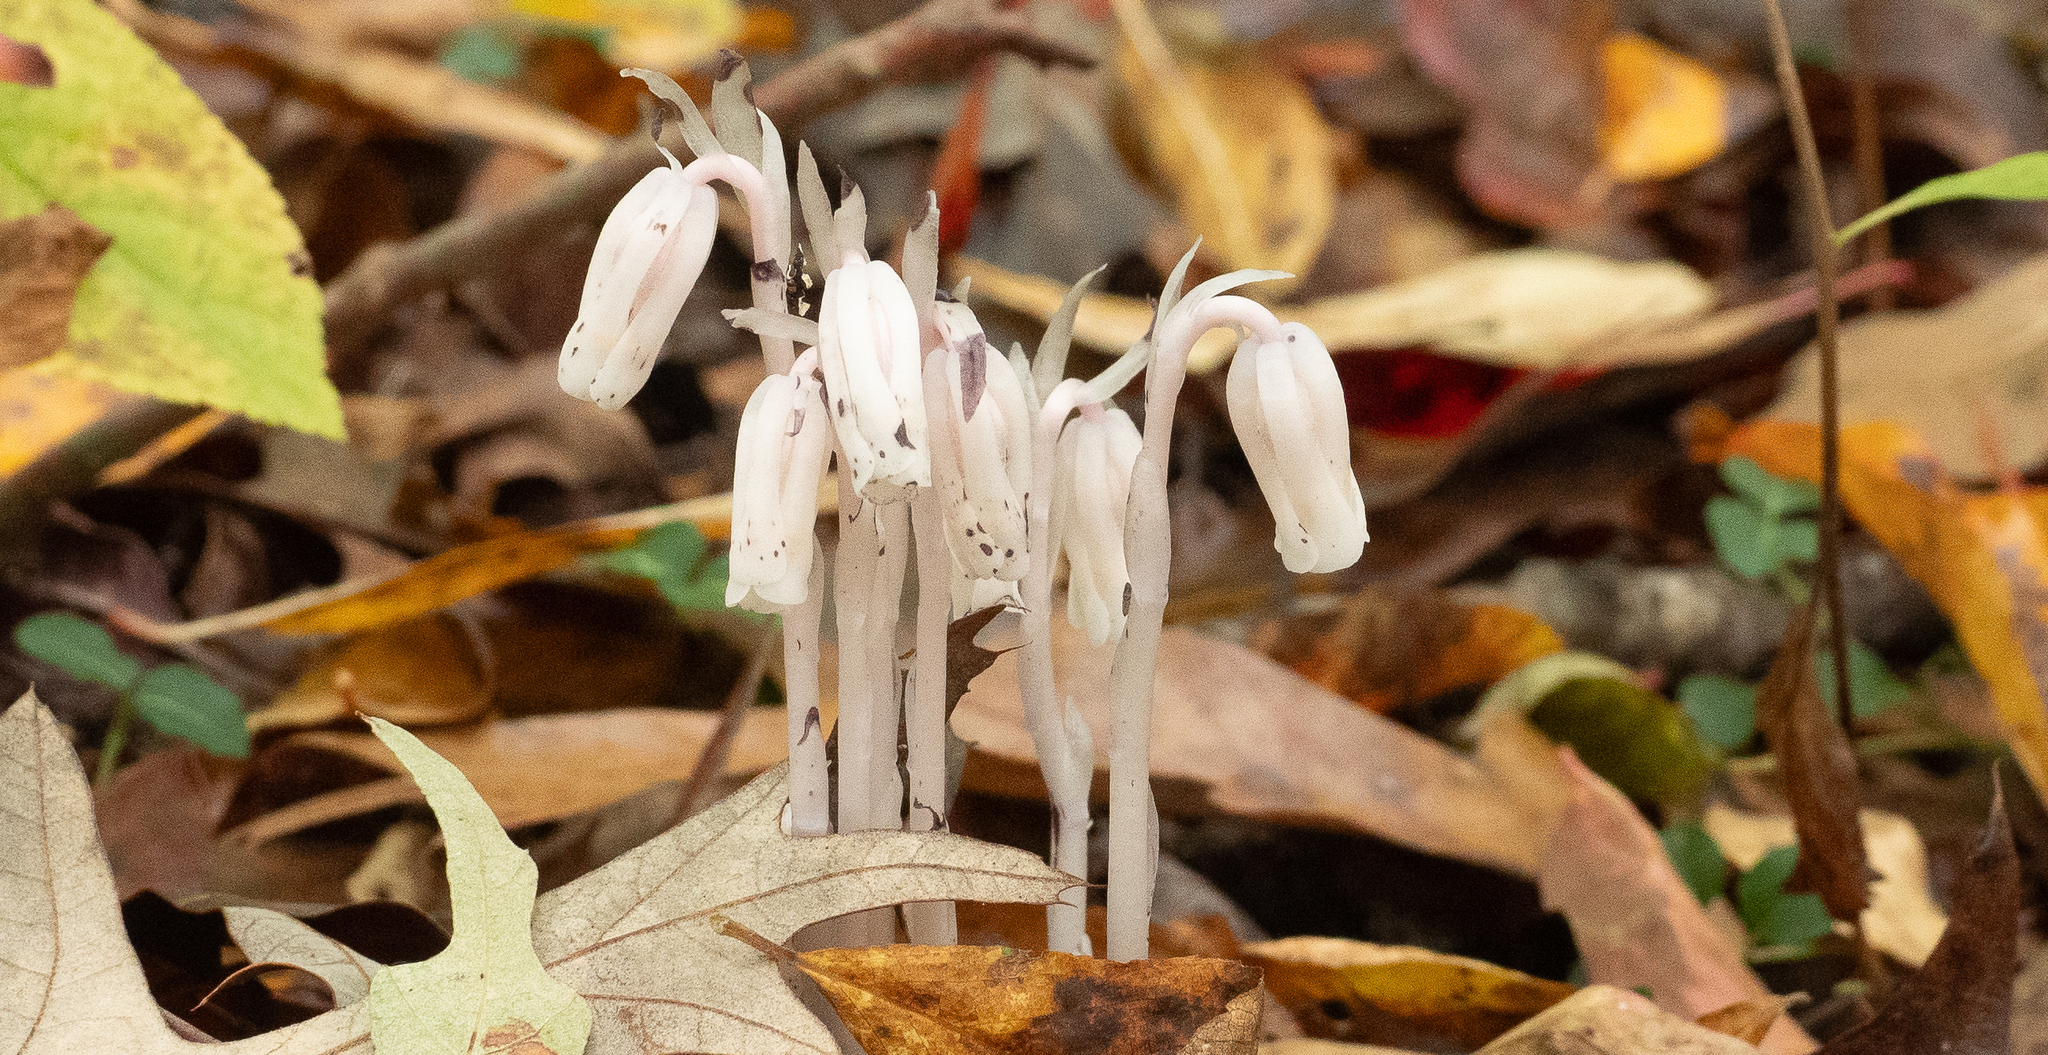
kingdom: Plantae
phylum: Tracheophyta
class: Magnoliopsida
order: Ericales
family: Ericaceae
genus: Monotropa
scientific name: Monotropa uniflora
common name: Convulsion root
